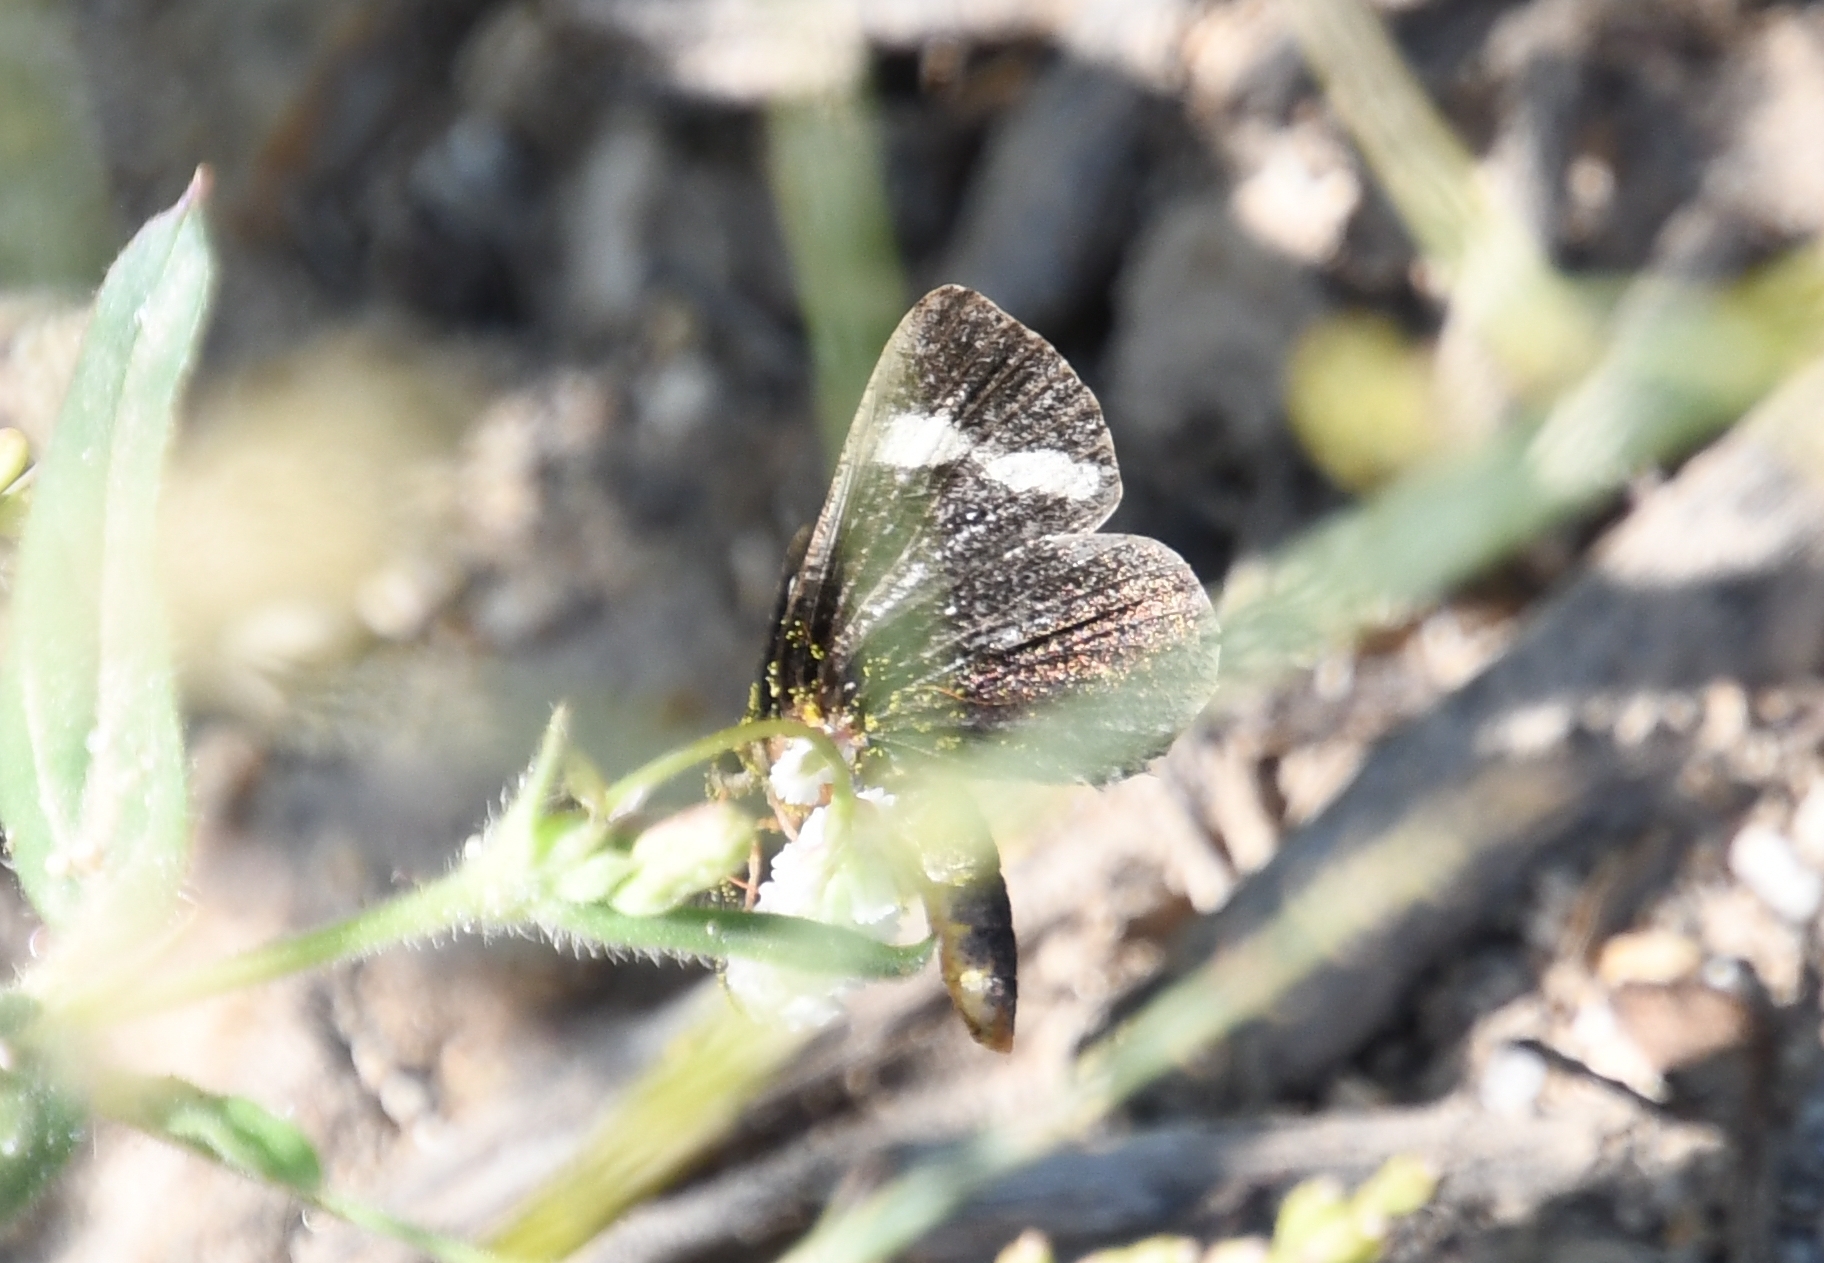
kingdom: Animalia
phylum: Arthropoda
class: Insecta
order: Lepidoptera
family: Noctuidae
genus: Alypiodes
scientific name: Alypiodes geronimo
